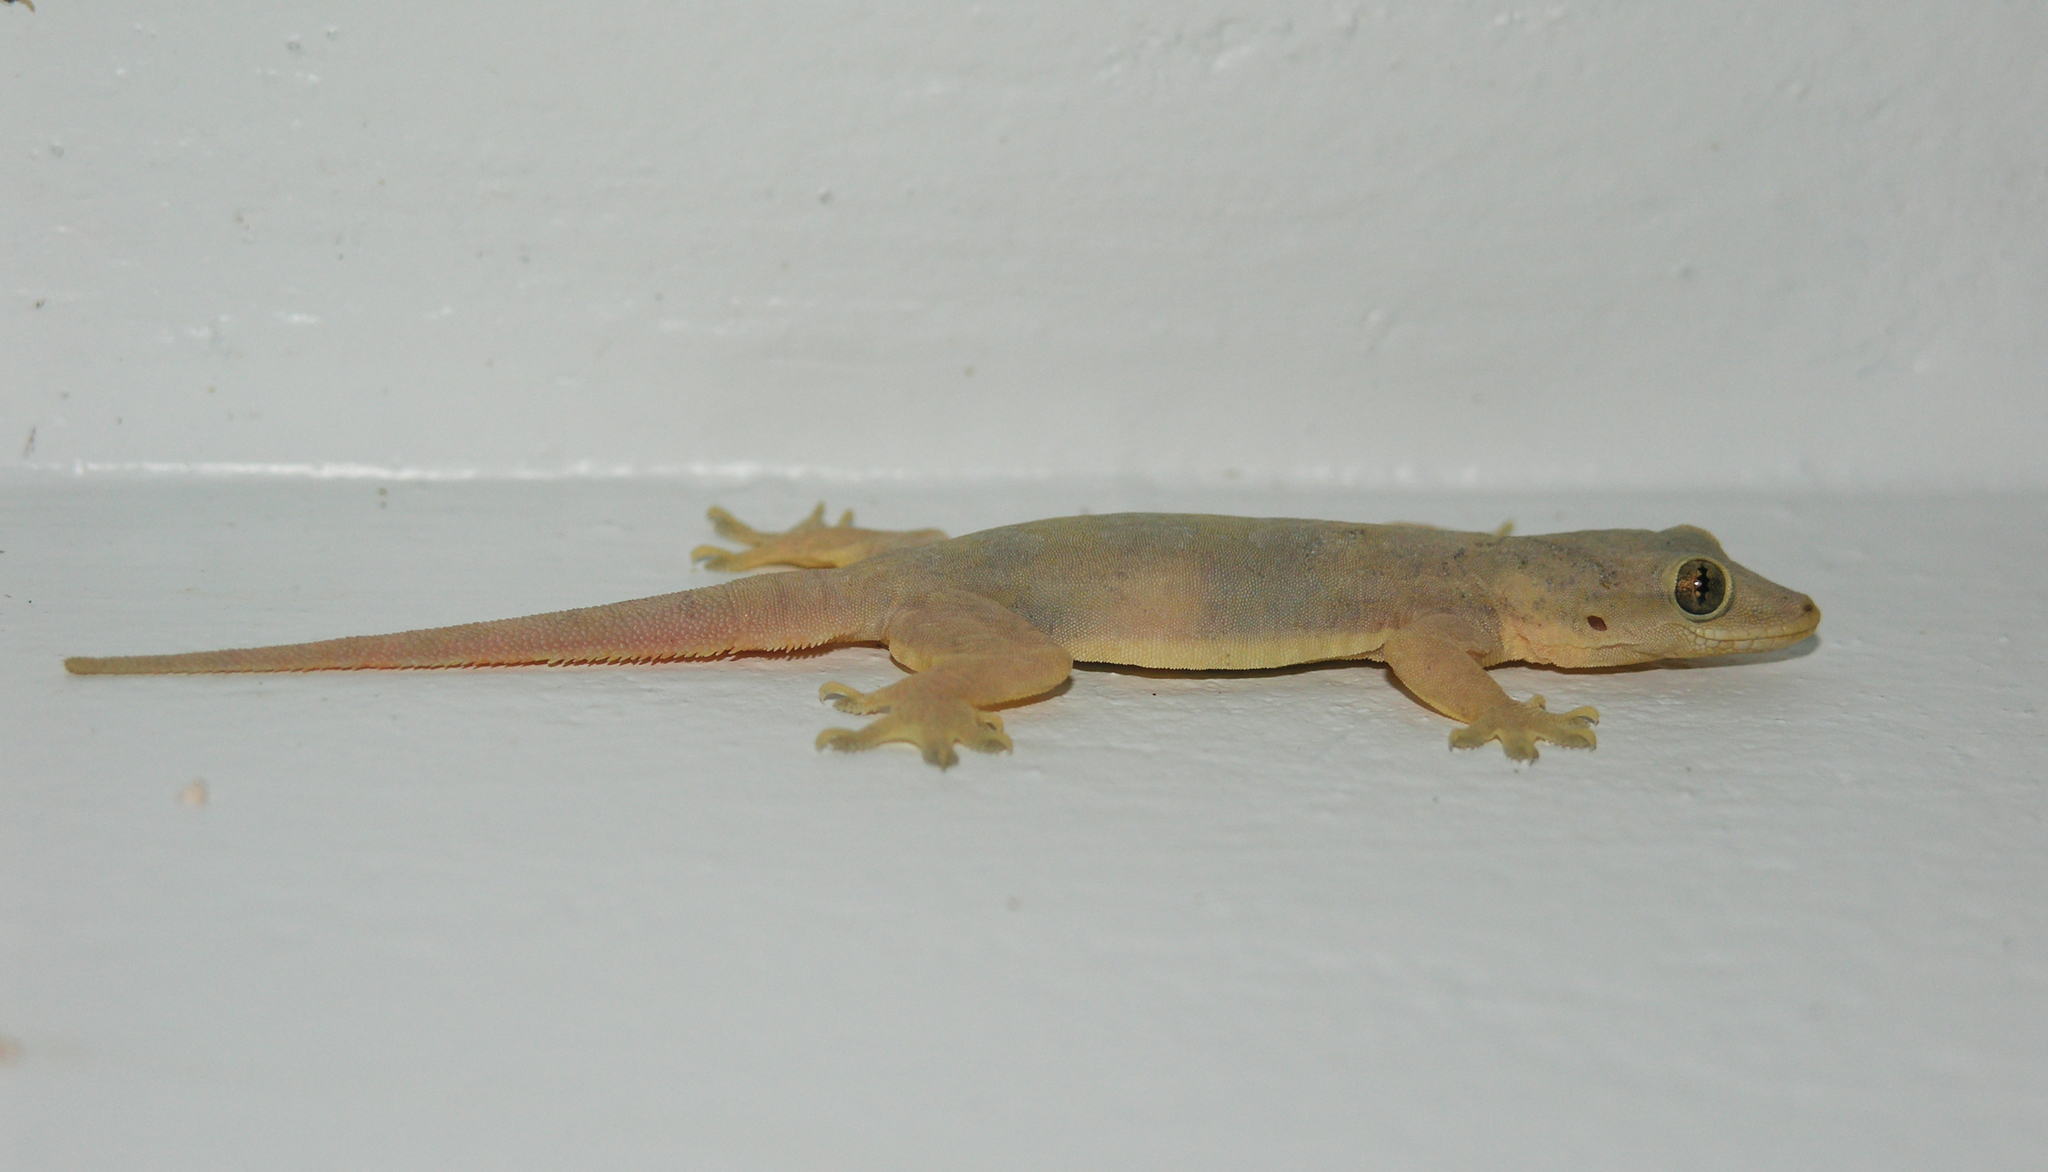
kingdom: Animalia
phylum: Chordata
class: Squamata
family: Gekkonidae
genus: Hemidactylus
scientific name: Hemidactylus platyurus
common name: Flat-tailed house gecko
